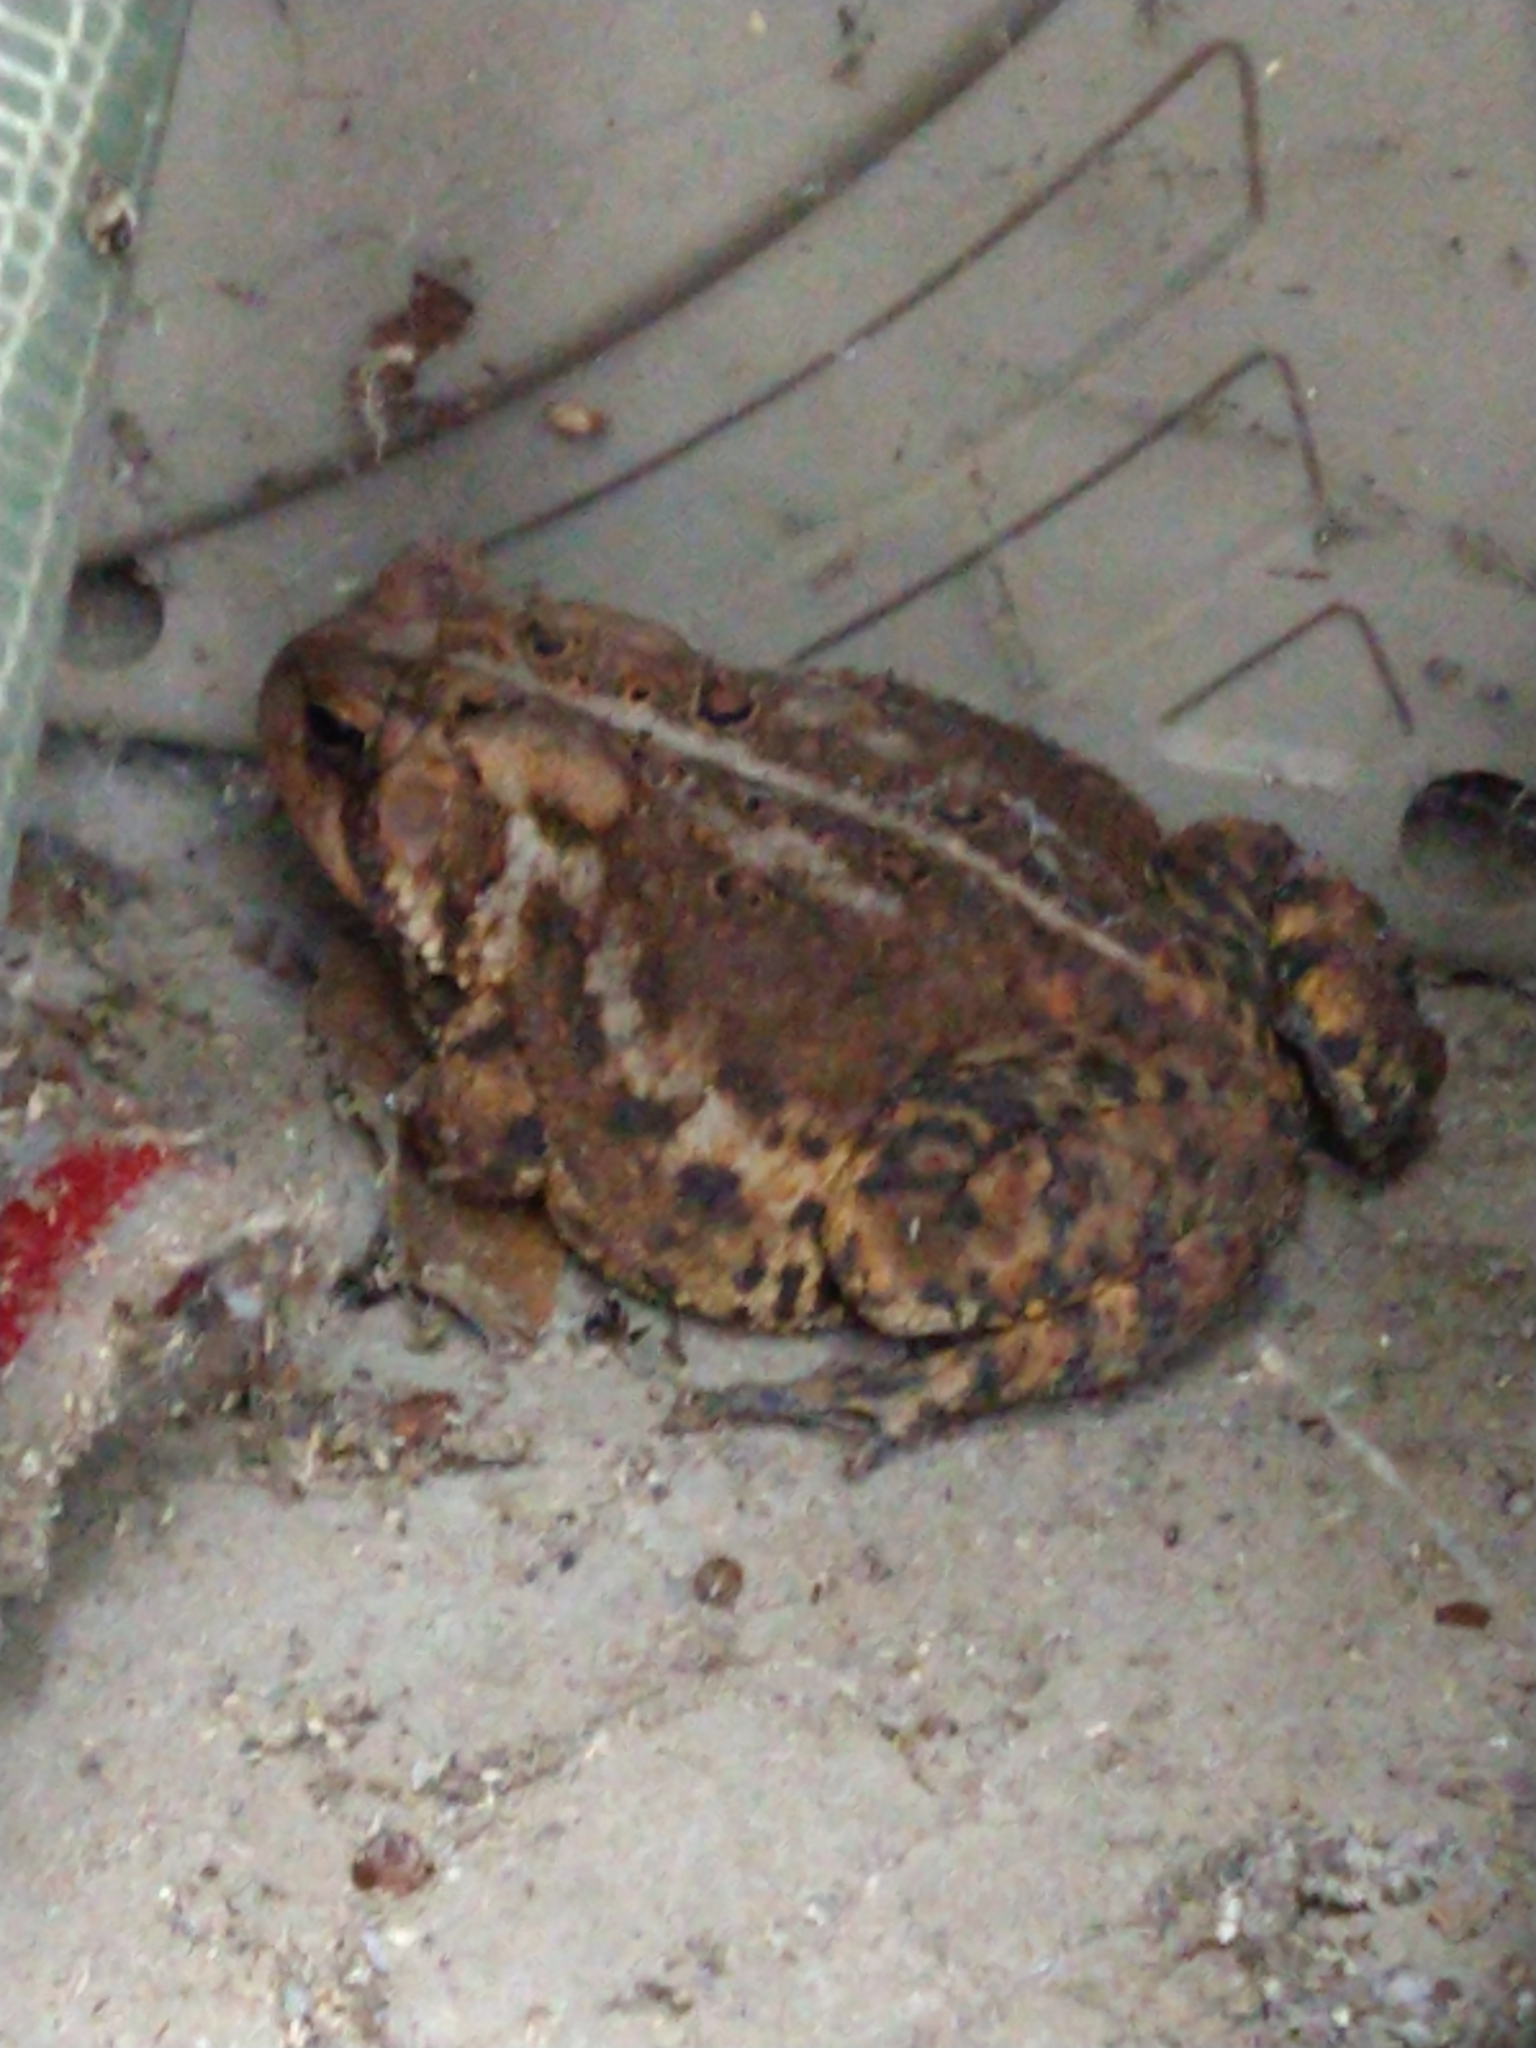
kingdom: Animalia
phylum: Chordata
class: Amphibia
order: Anura
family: Bufonidae
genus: Anaxyrus
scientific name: Anaxyrus americanus
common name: American toad
